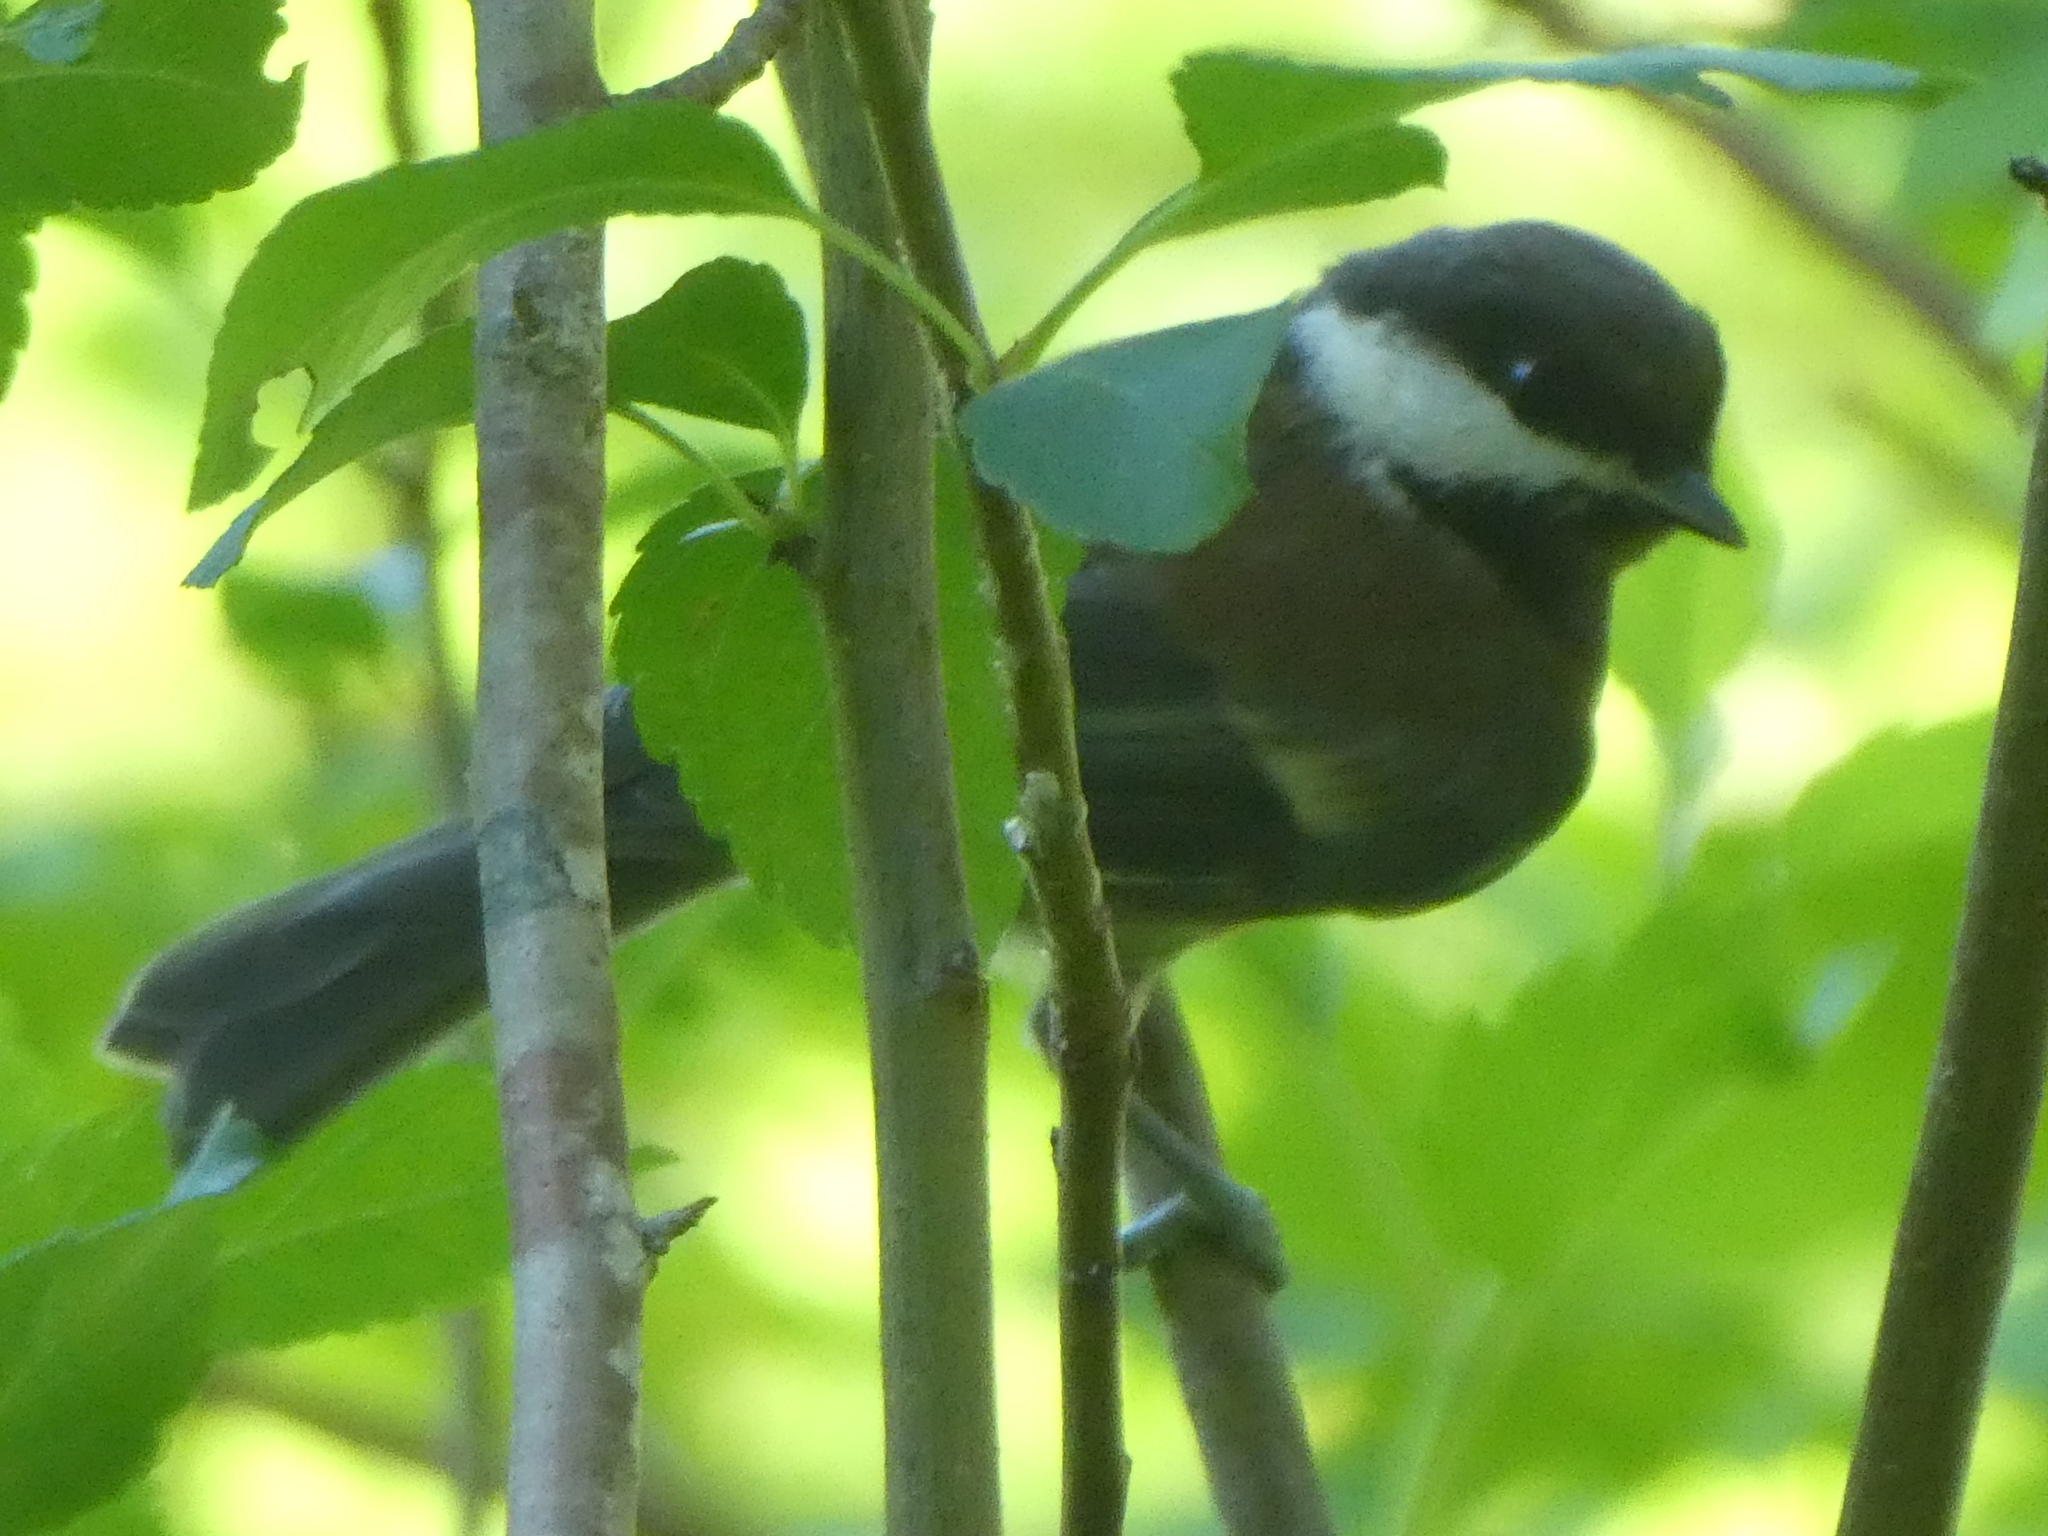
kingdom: Animalia
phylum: Chordata
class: Aves
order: Passeriformes
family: Paridae
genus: Poecile
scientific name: Poecile rufescens
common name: Chestnut-backed chickadee
